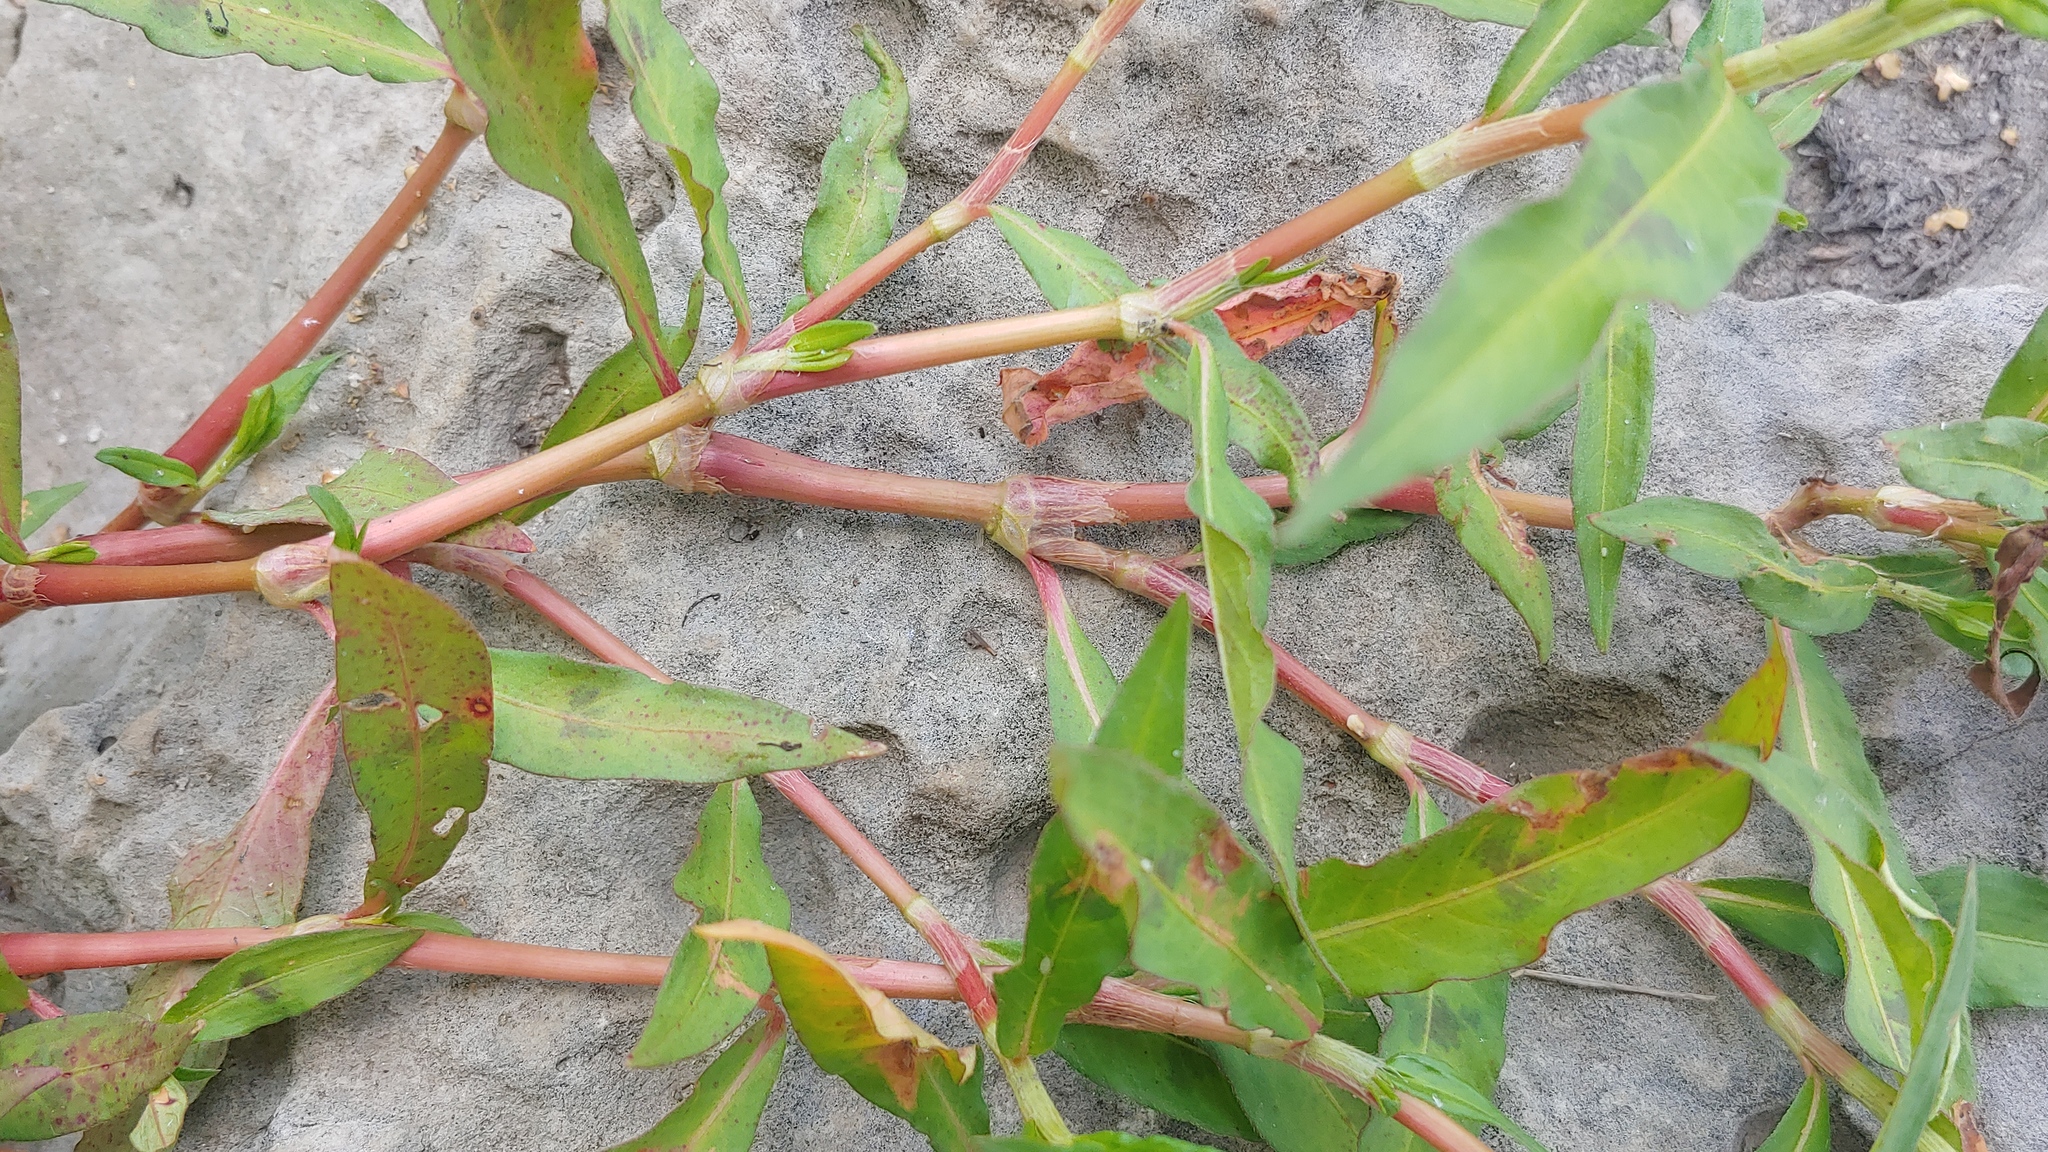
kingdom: Plantae
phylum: Tracheophyta
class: Magnoliopsida
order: Caryophyllales
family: Polygonaceae
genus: Persicaria
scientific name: Persicaria maculosa
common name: Redshank
